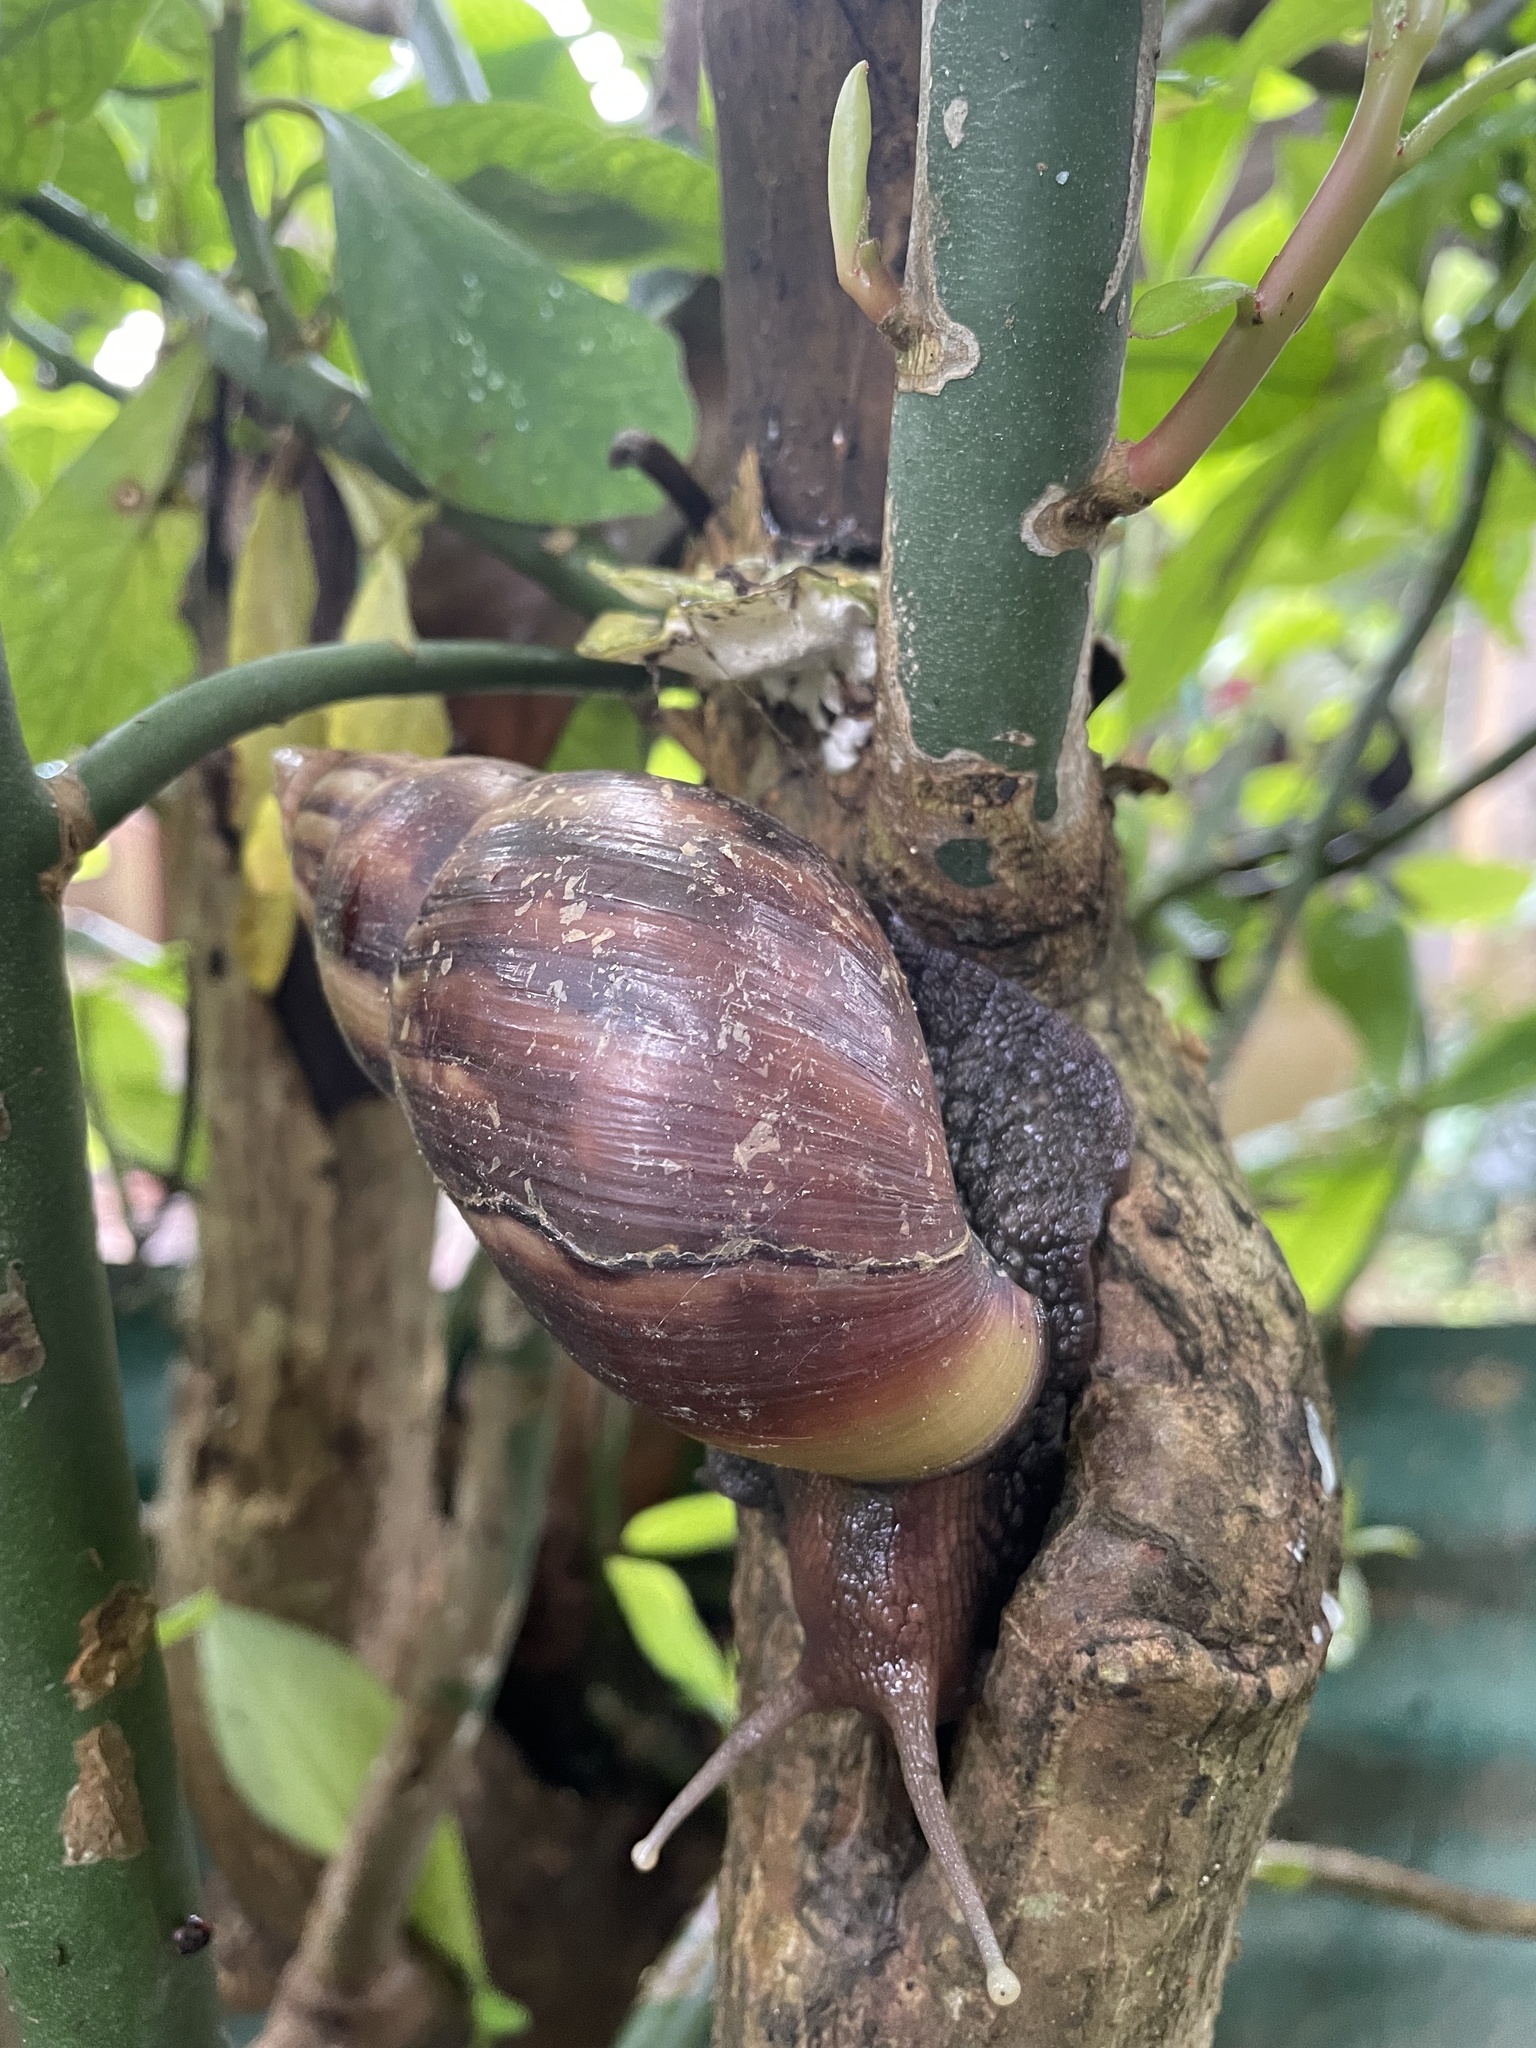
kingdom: Animalia
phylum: Mollusca
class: Gastropoda
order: Stylommatophora
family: Achatinidae
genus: Lissachatina
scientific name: Lissachatina fulica
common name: Giant african snail
